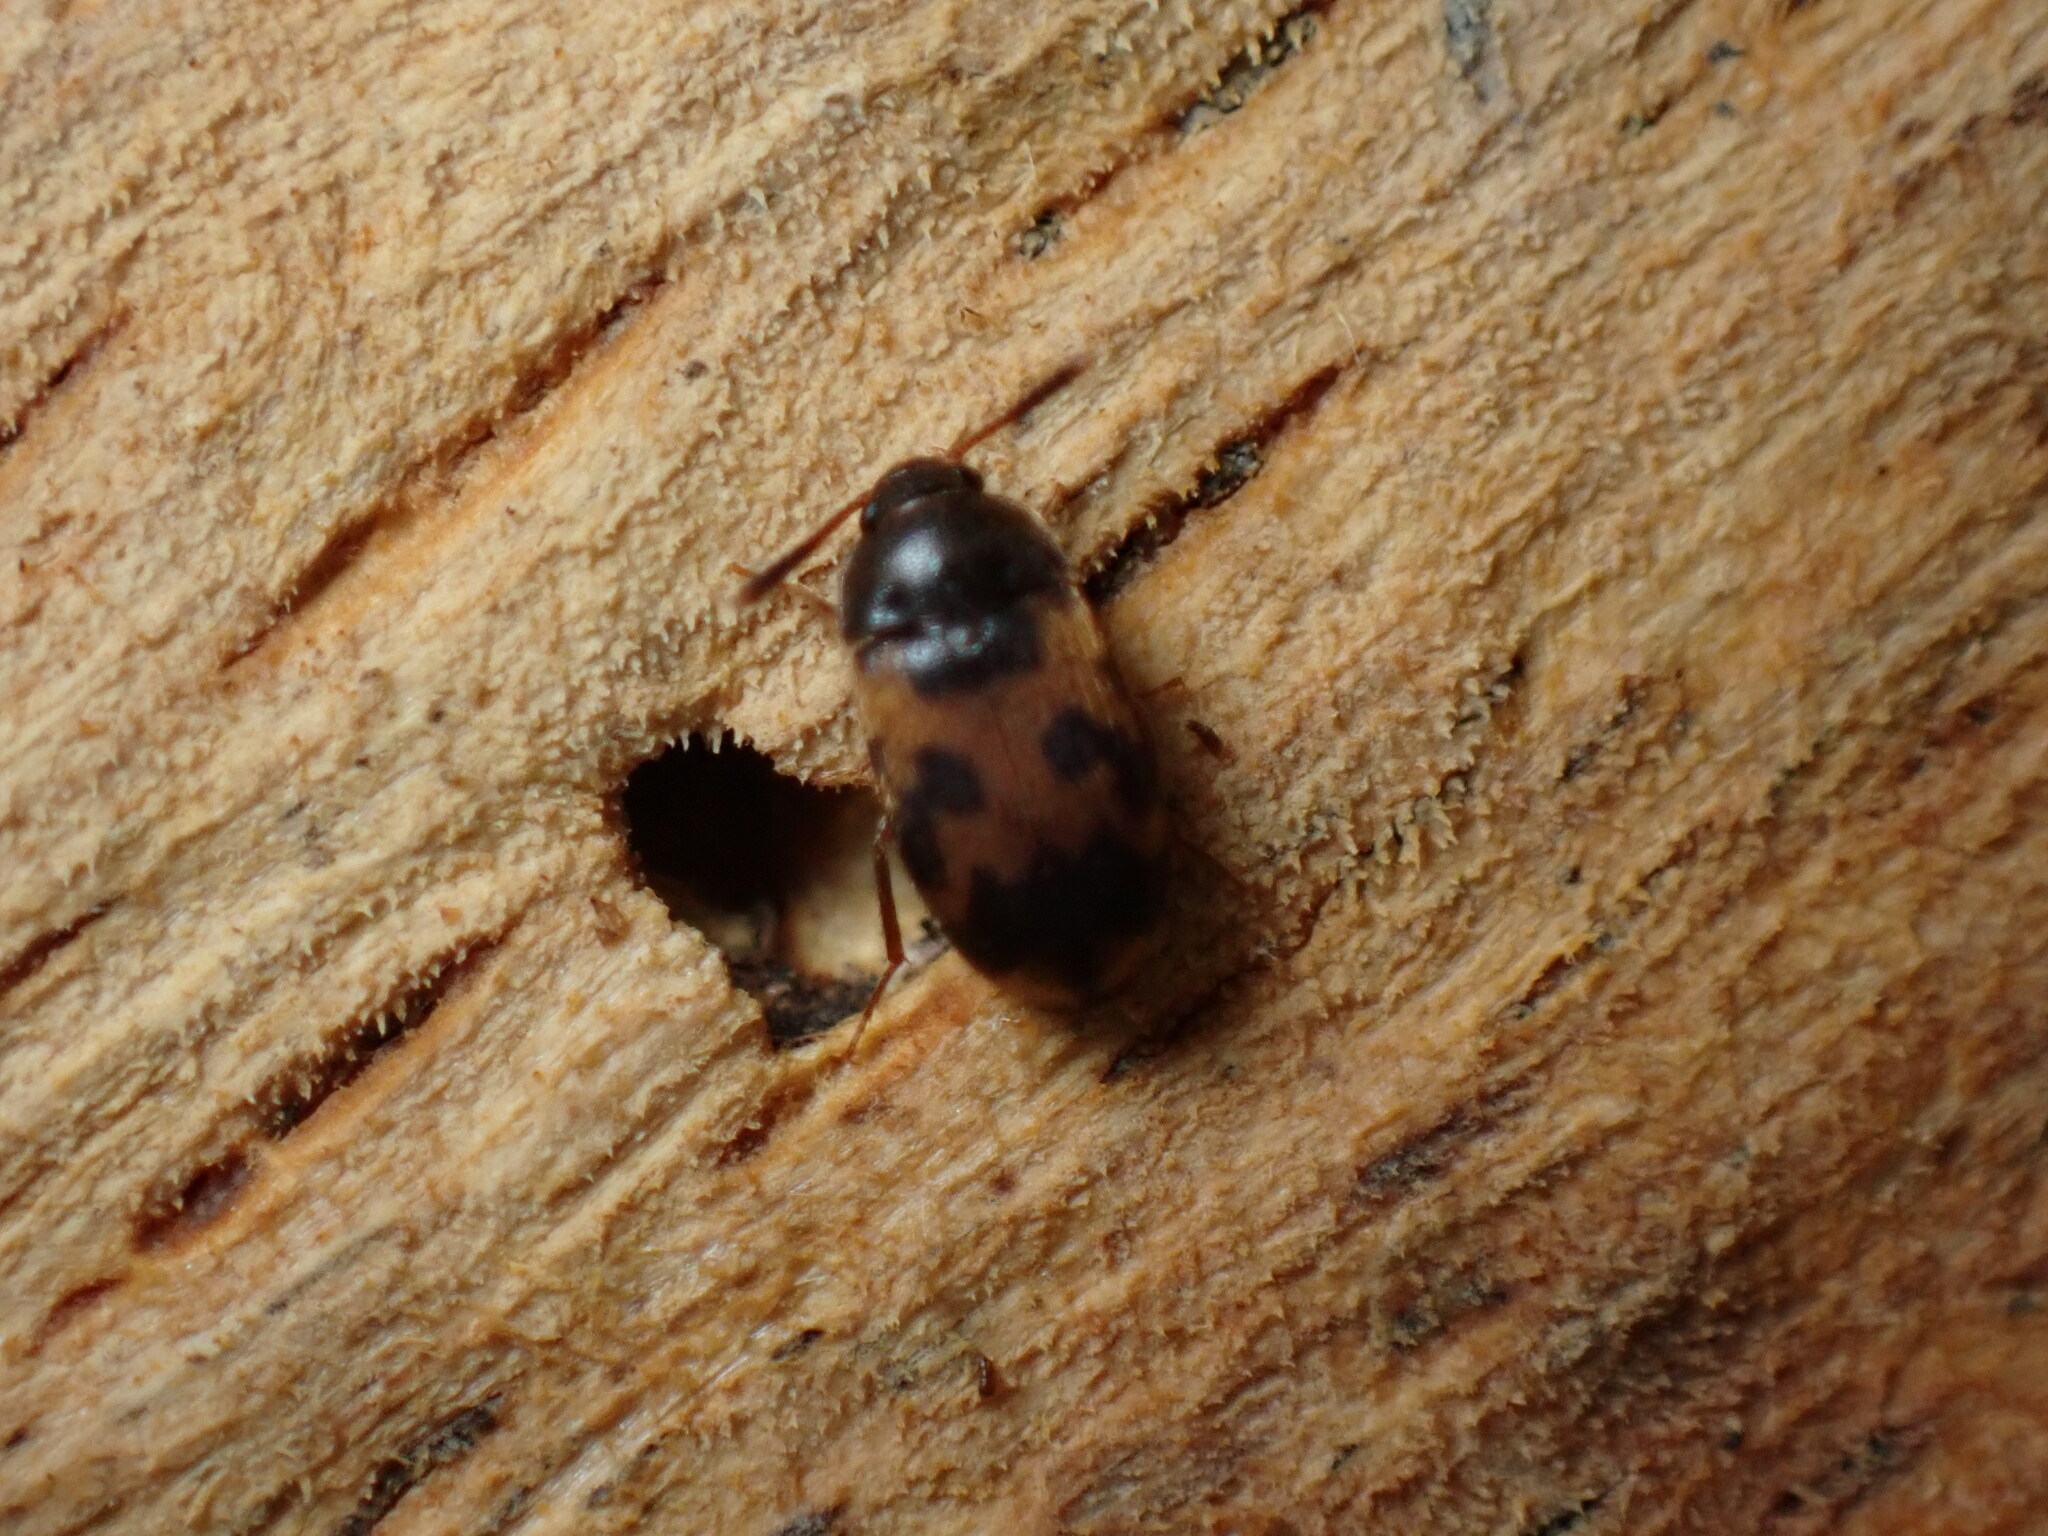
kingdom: Animalia
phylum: Arthropoda
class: Insecta
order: Coleoptera
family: Mycetophagidae
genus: Mycetophagus
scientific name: Mycetophagus flexuosus
